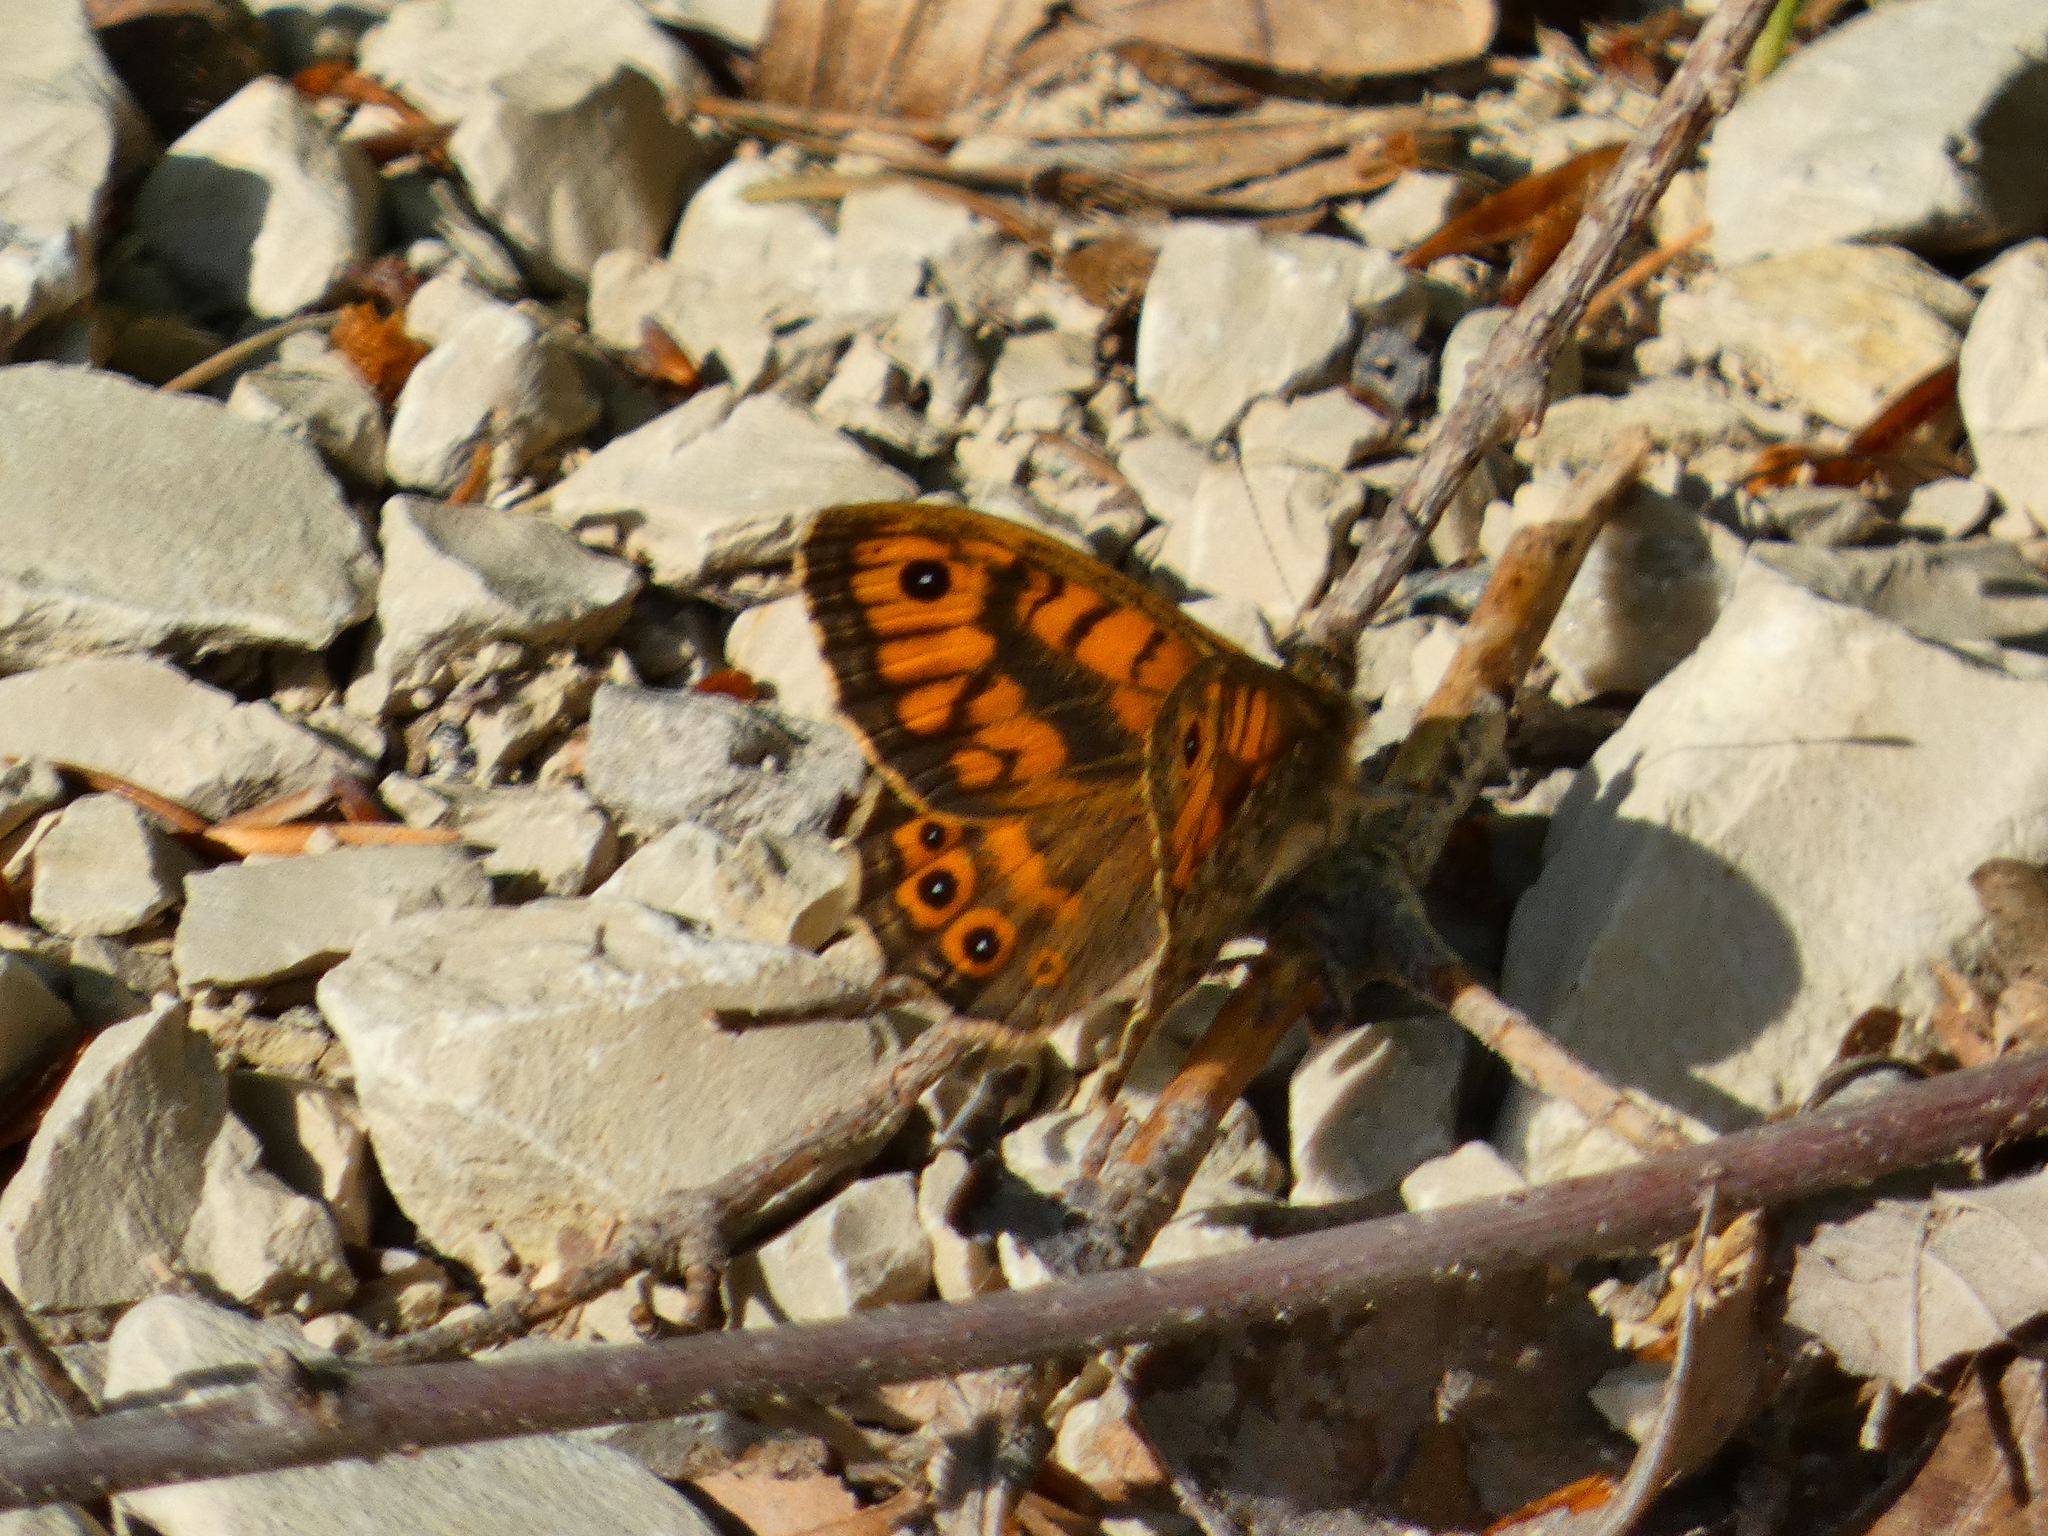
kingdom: Animalia
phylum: Arthropoda
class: Insecta
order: Lepidoptera
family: Nymphalidae
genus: Pararge
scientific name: Pararge Lasiommata megera
